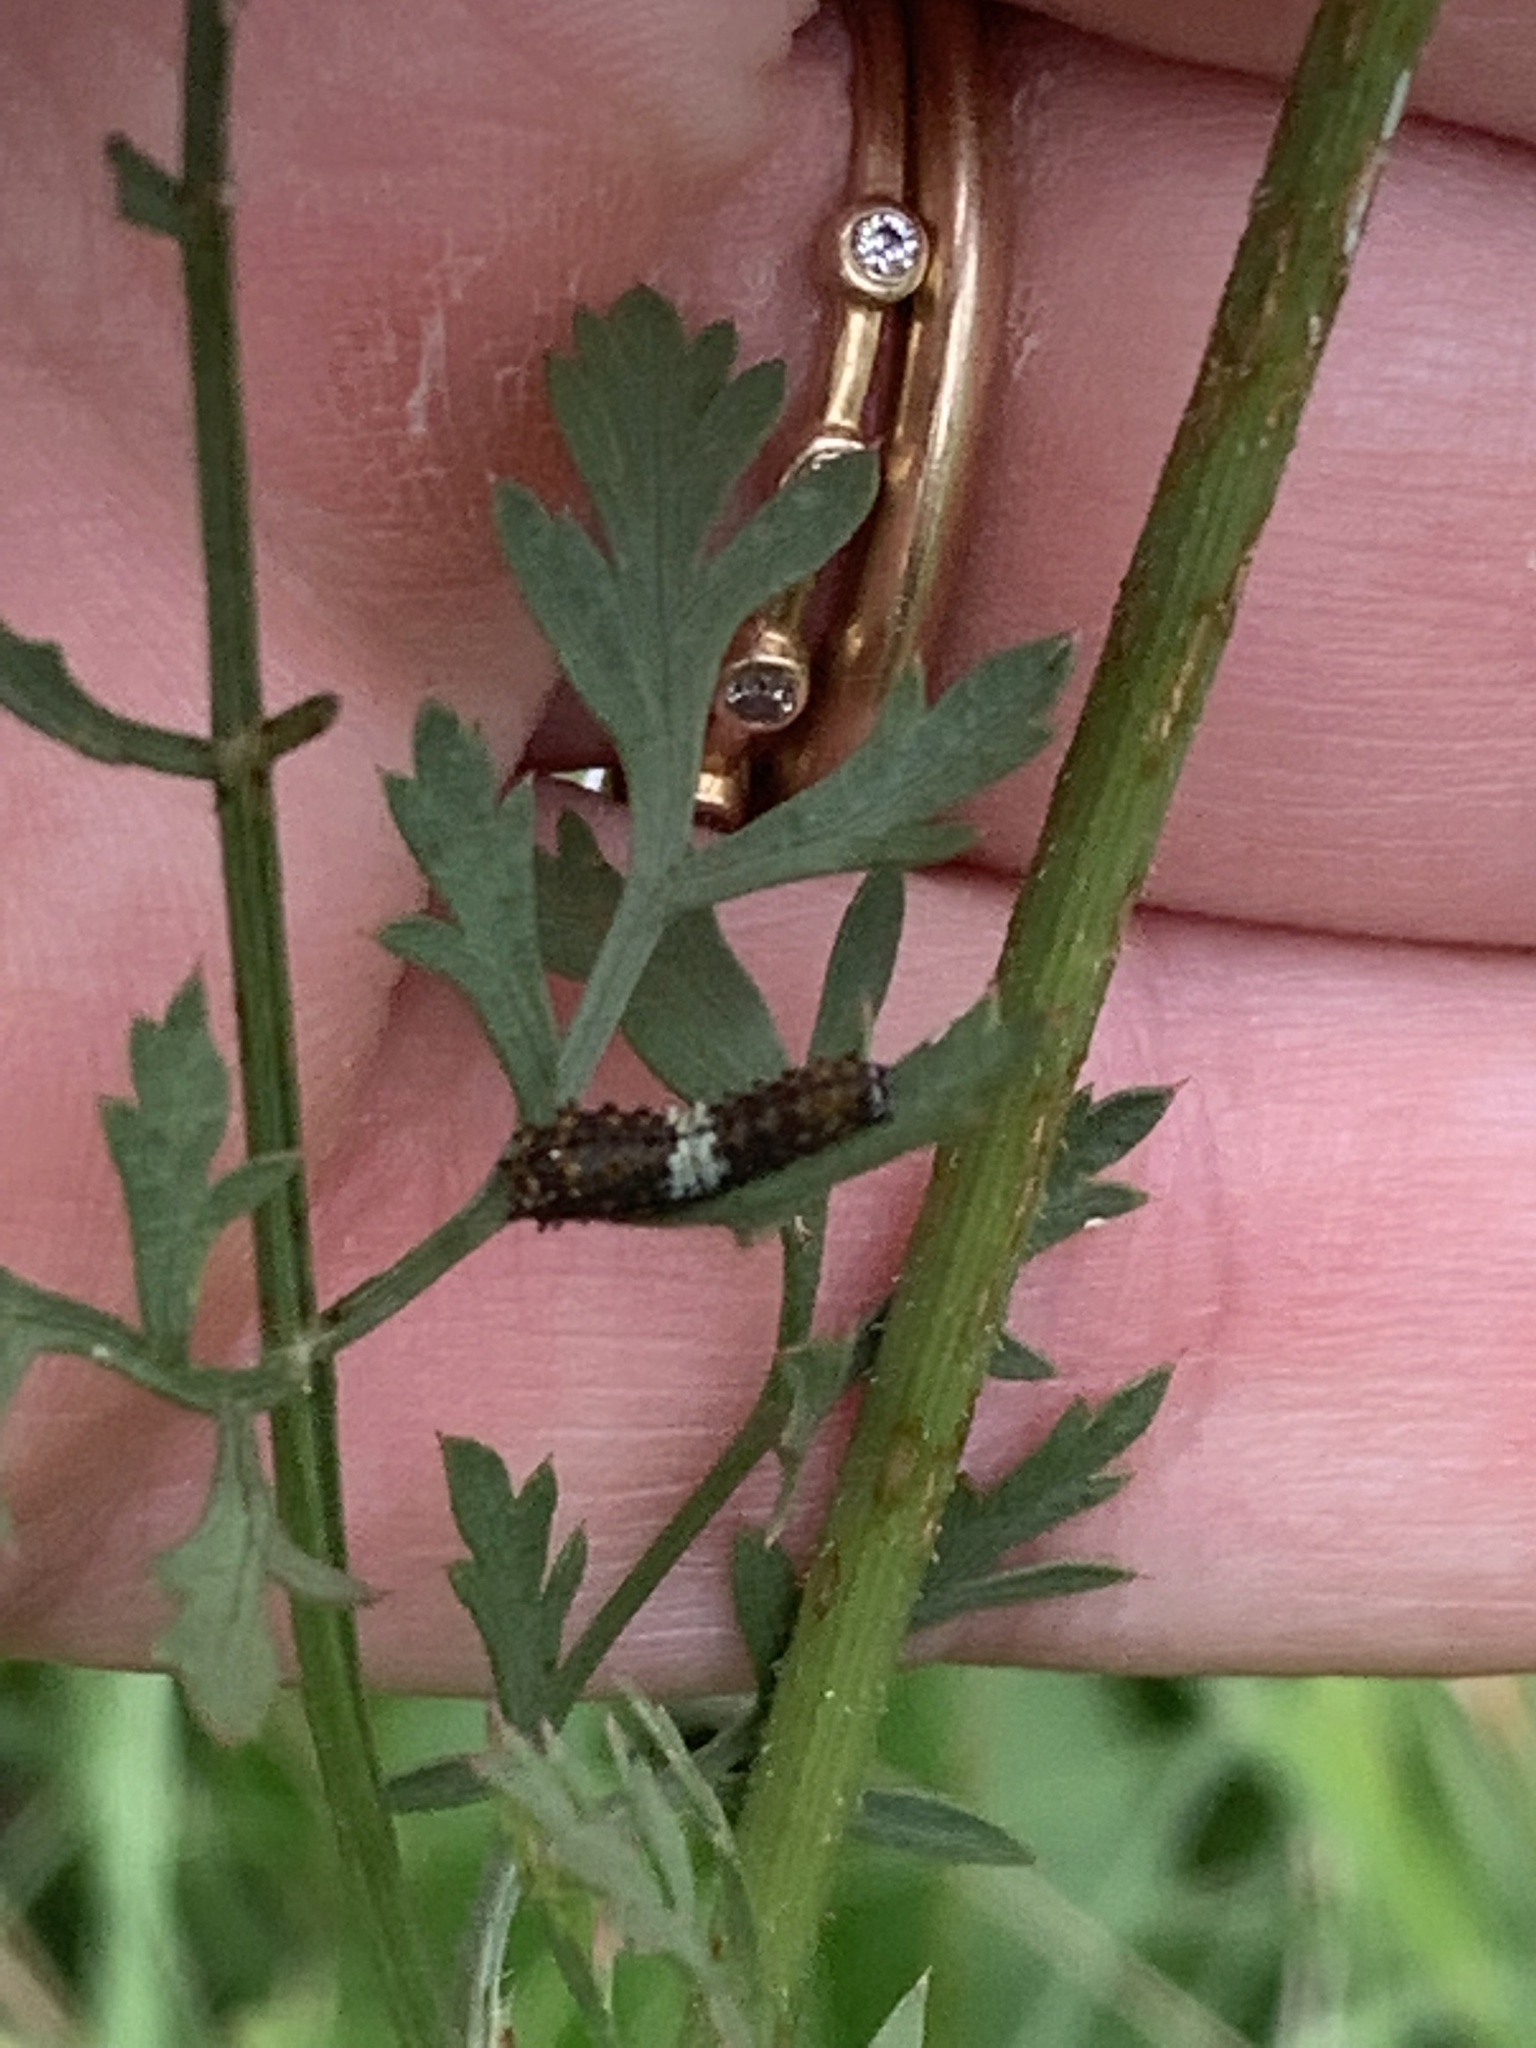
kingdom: Animalia
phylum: Arthropoda
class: Insecta
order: Lepidoptera
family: Papilionidae
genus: Papilio
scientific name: Papilio polyxenes
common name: Black swallowtail
